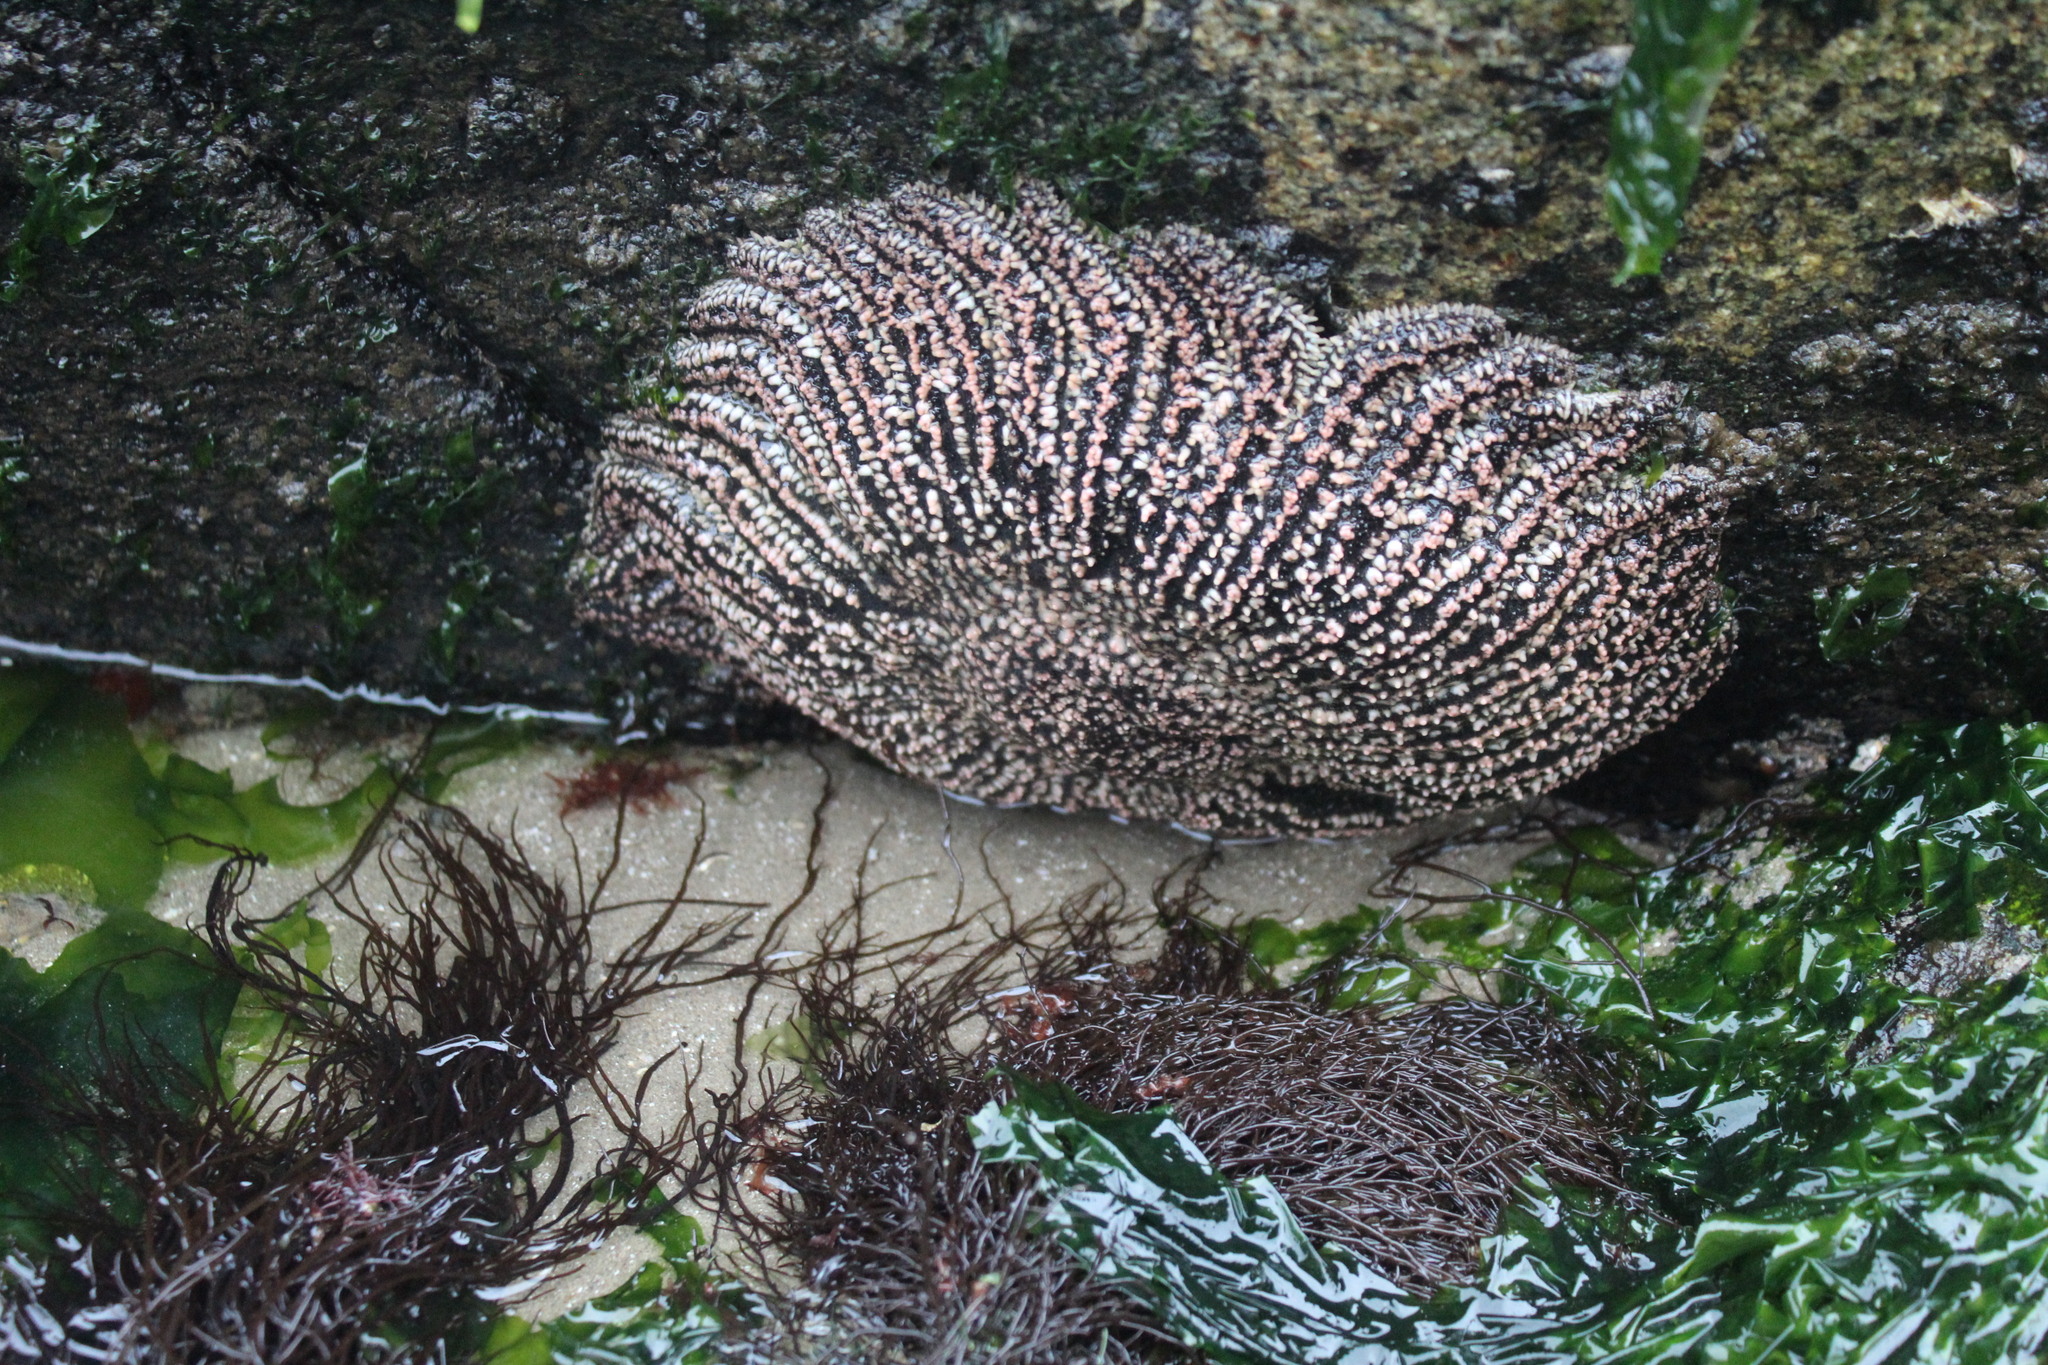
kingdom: Animalia
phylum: Echinodermata
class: Asteroidea
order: Forcipulatida
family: Heliasteridae
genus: Heliaster
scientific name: Heliaster helianthus
